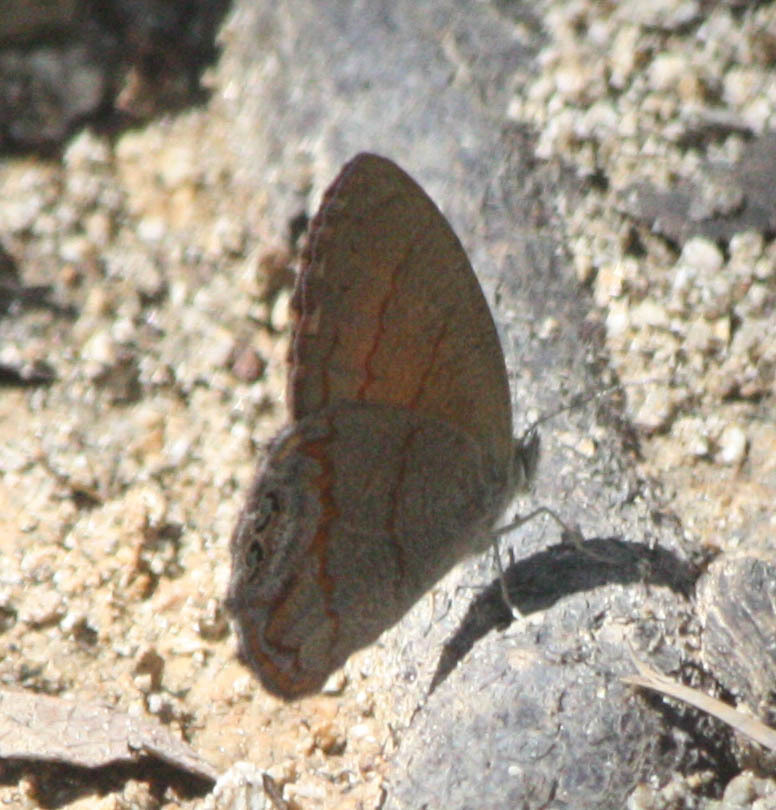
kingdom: Animalia
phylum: Arthropoda
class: Insecta
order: Lepidoptera
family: Nymphalidae
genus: Euptychia
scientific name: Euptychia pyracmon
